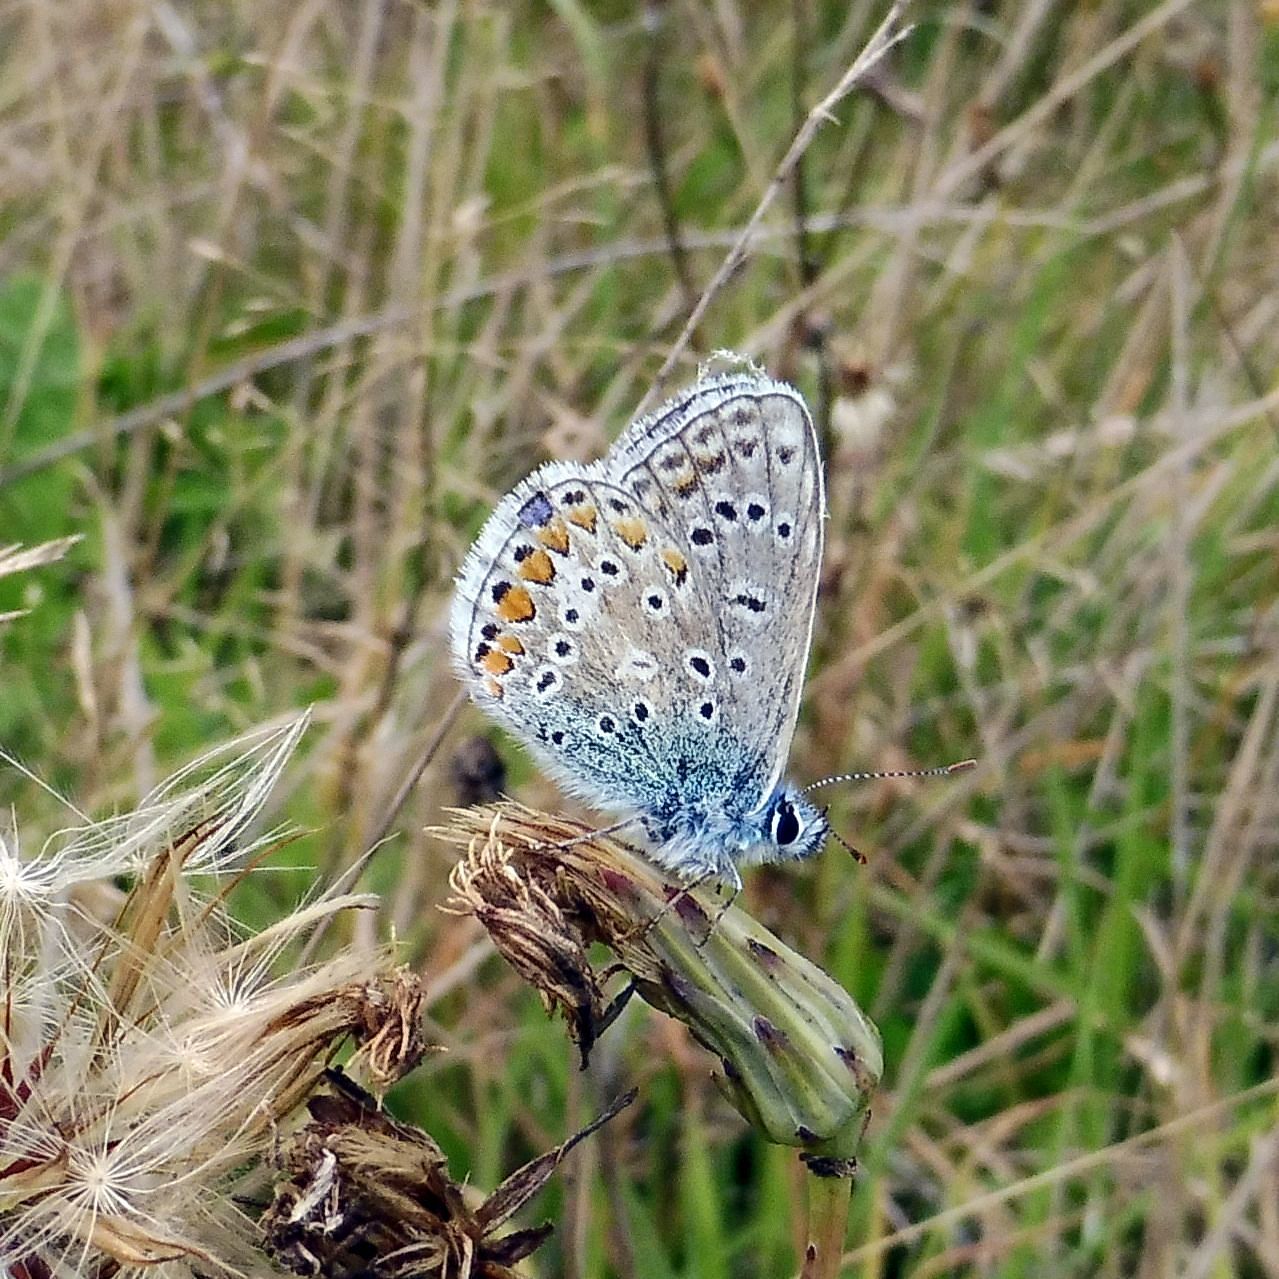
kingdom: Animalia
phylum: Arthropoda
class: Insecta
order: Lepidoptera
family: Lycaenidae
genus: Polyommatus
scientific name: Polyommatus icarus
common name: Common blue
